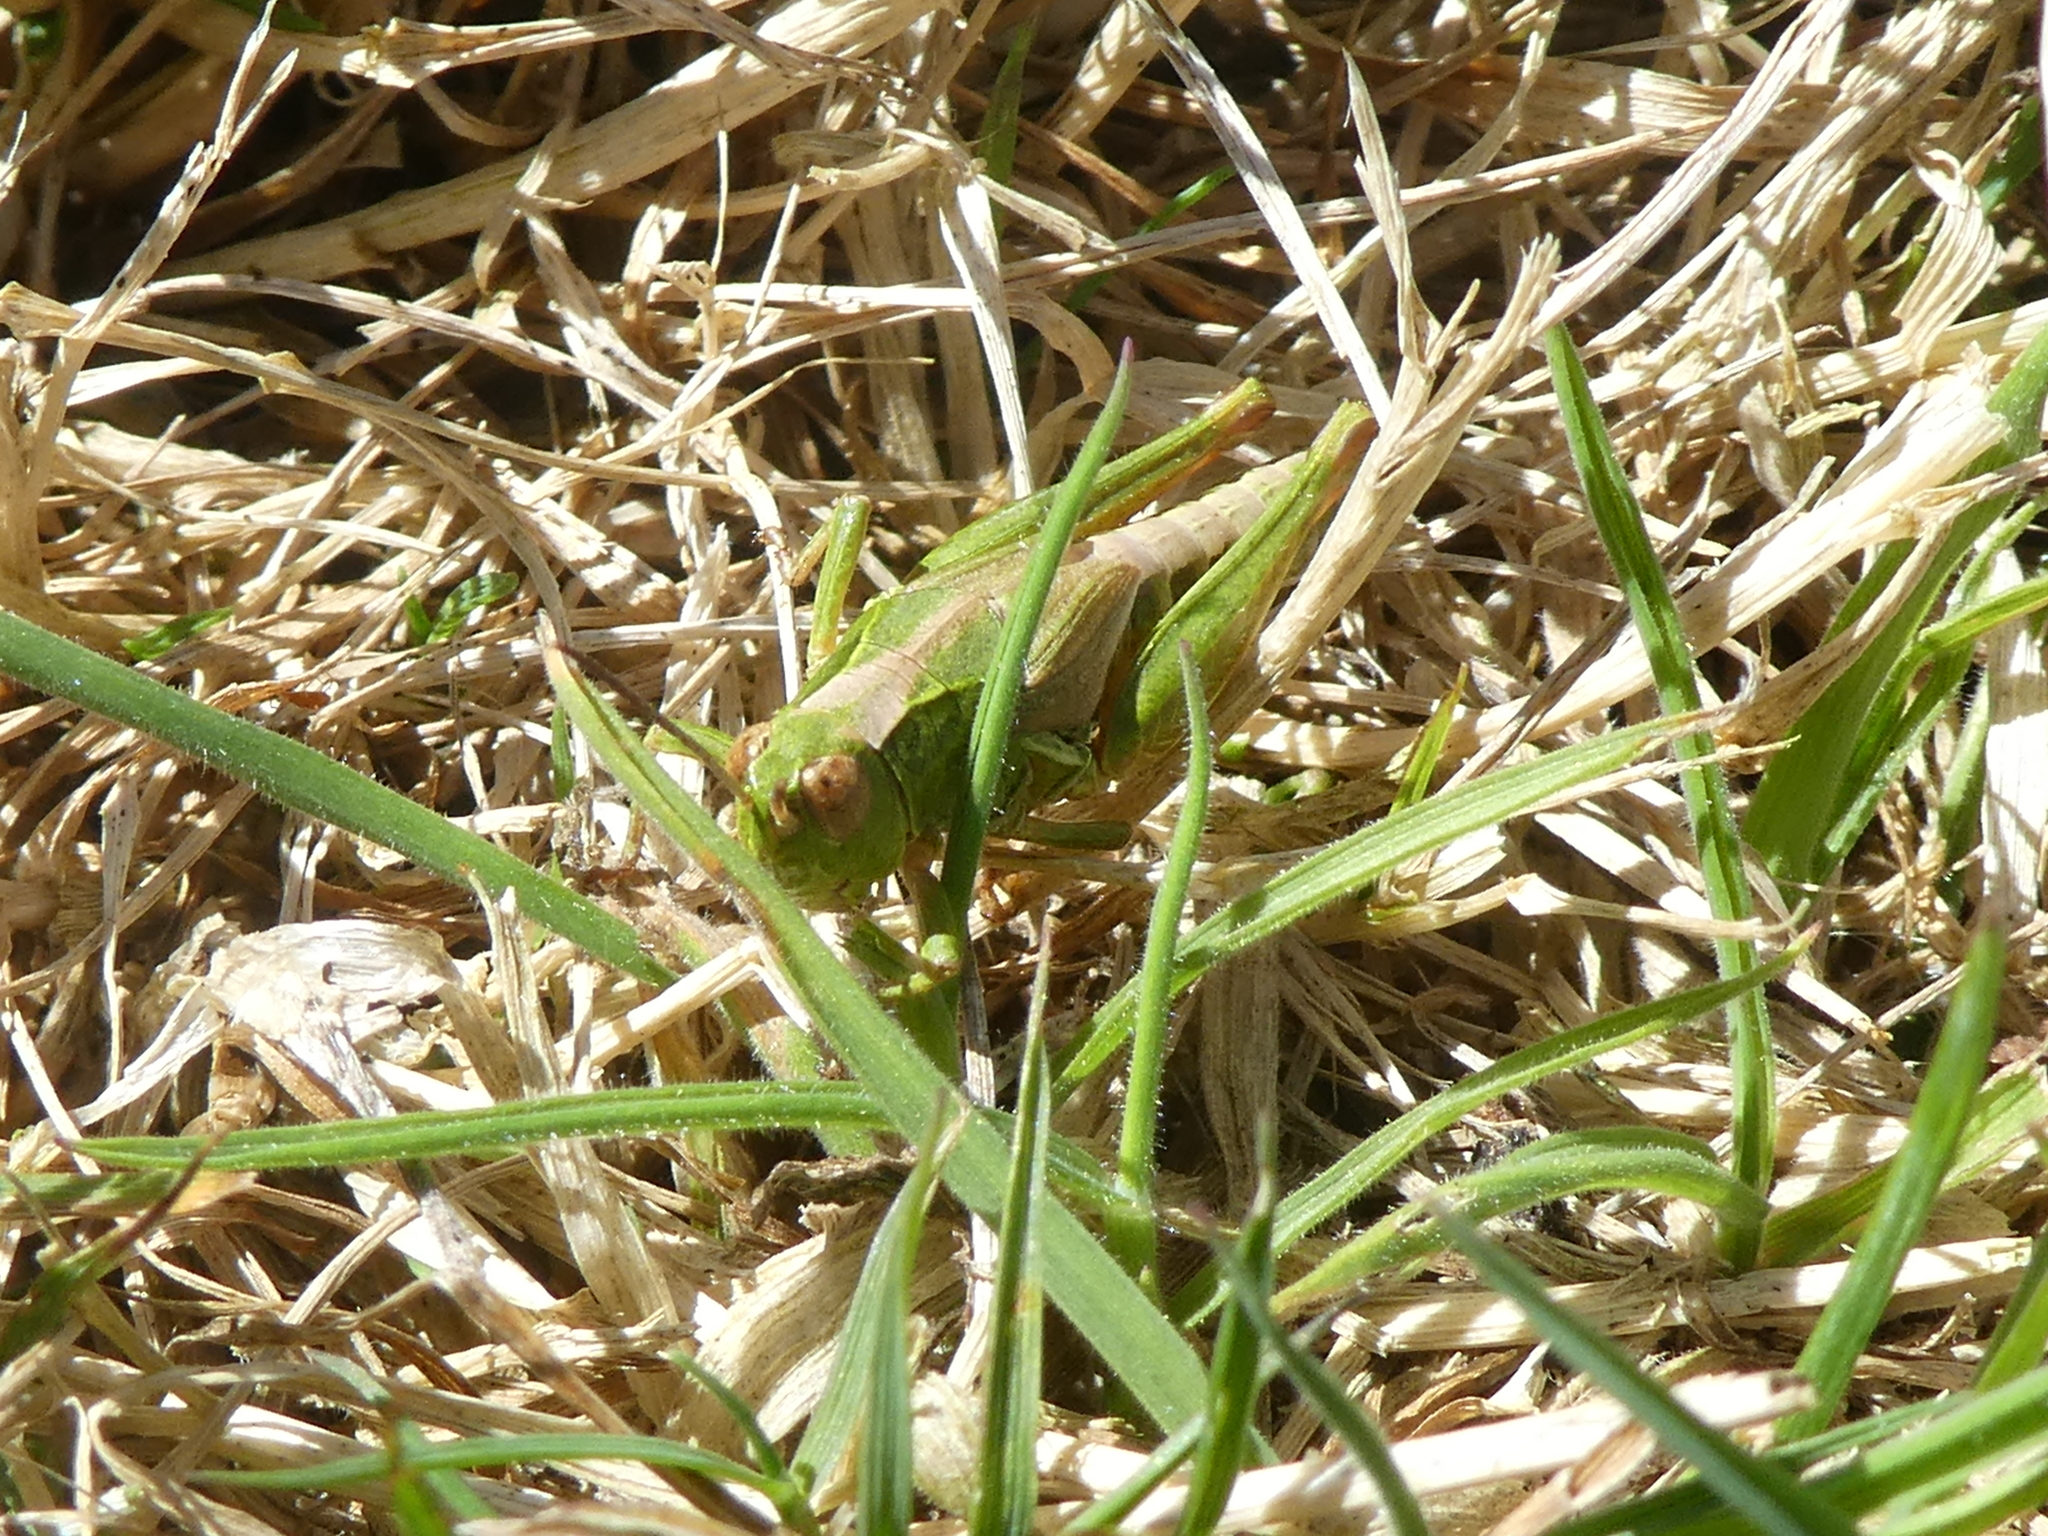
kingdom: Animalia
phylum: Arthropoda
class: Insecta
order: Orthoptera
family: Acrididae
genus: Locusta
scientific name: Locusta migratoria
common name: Migratory locust
